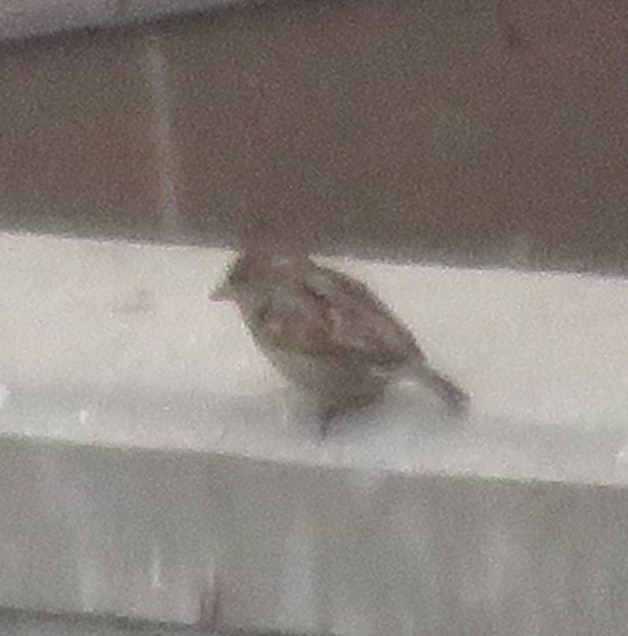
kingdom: Animalia
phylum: Chordata
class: Aves
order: Passeriformes
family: Passeridae
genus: Passer
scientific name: Passer domesticus
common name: House sparrow
